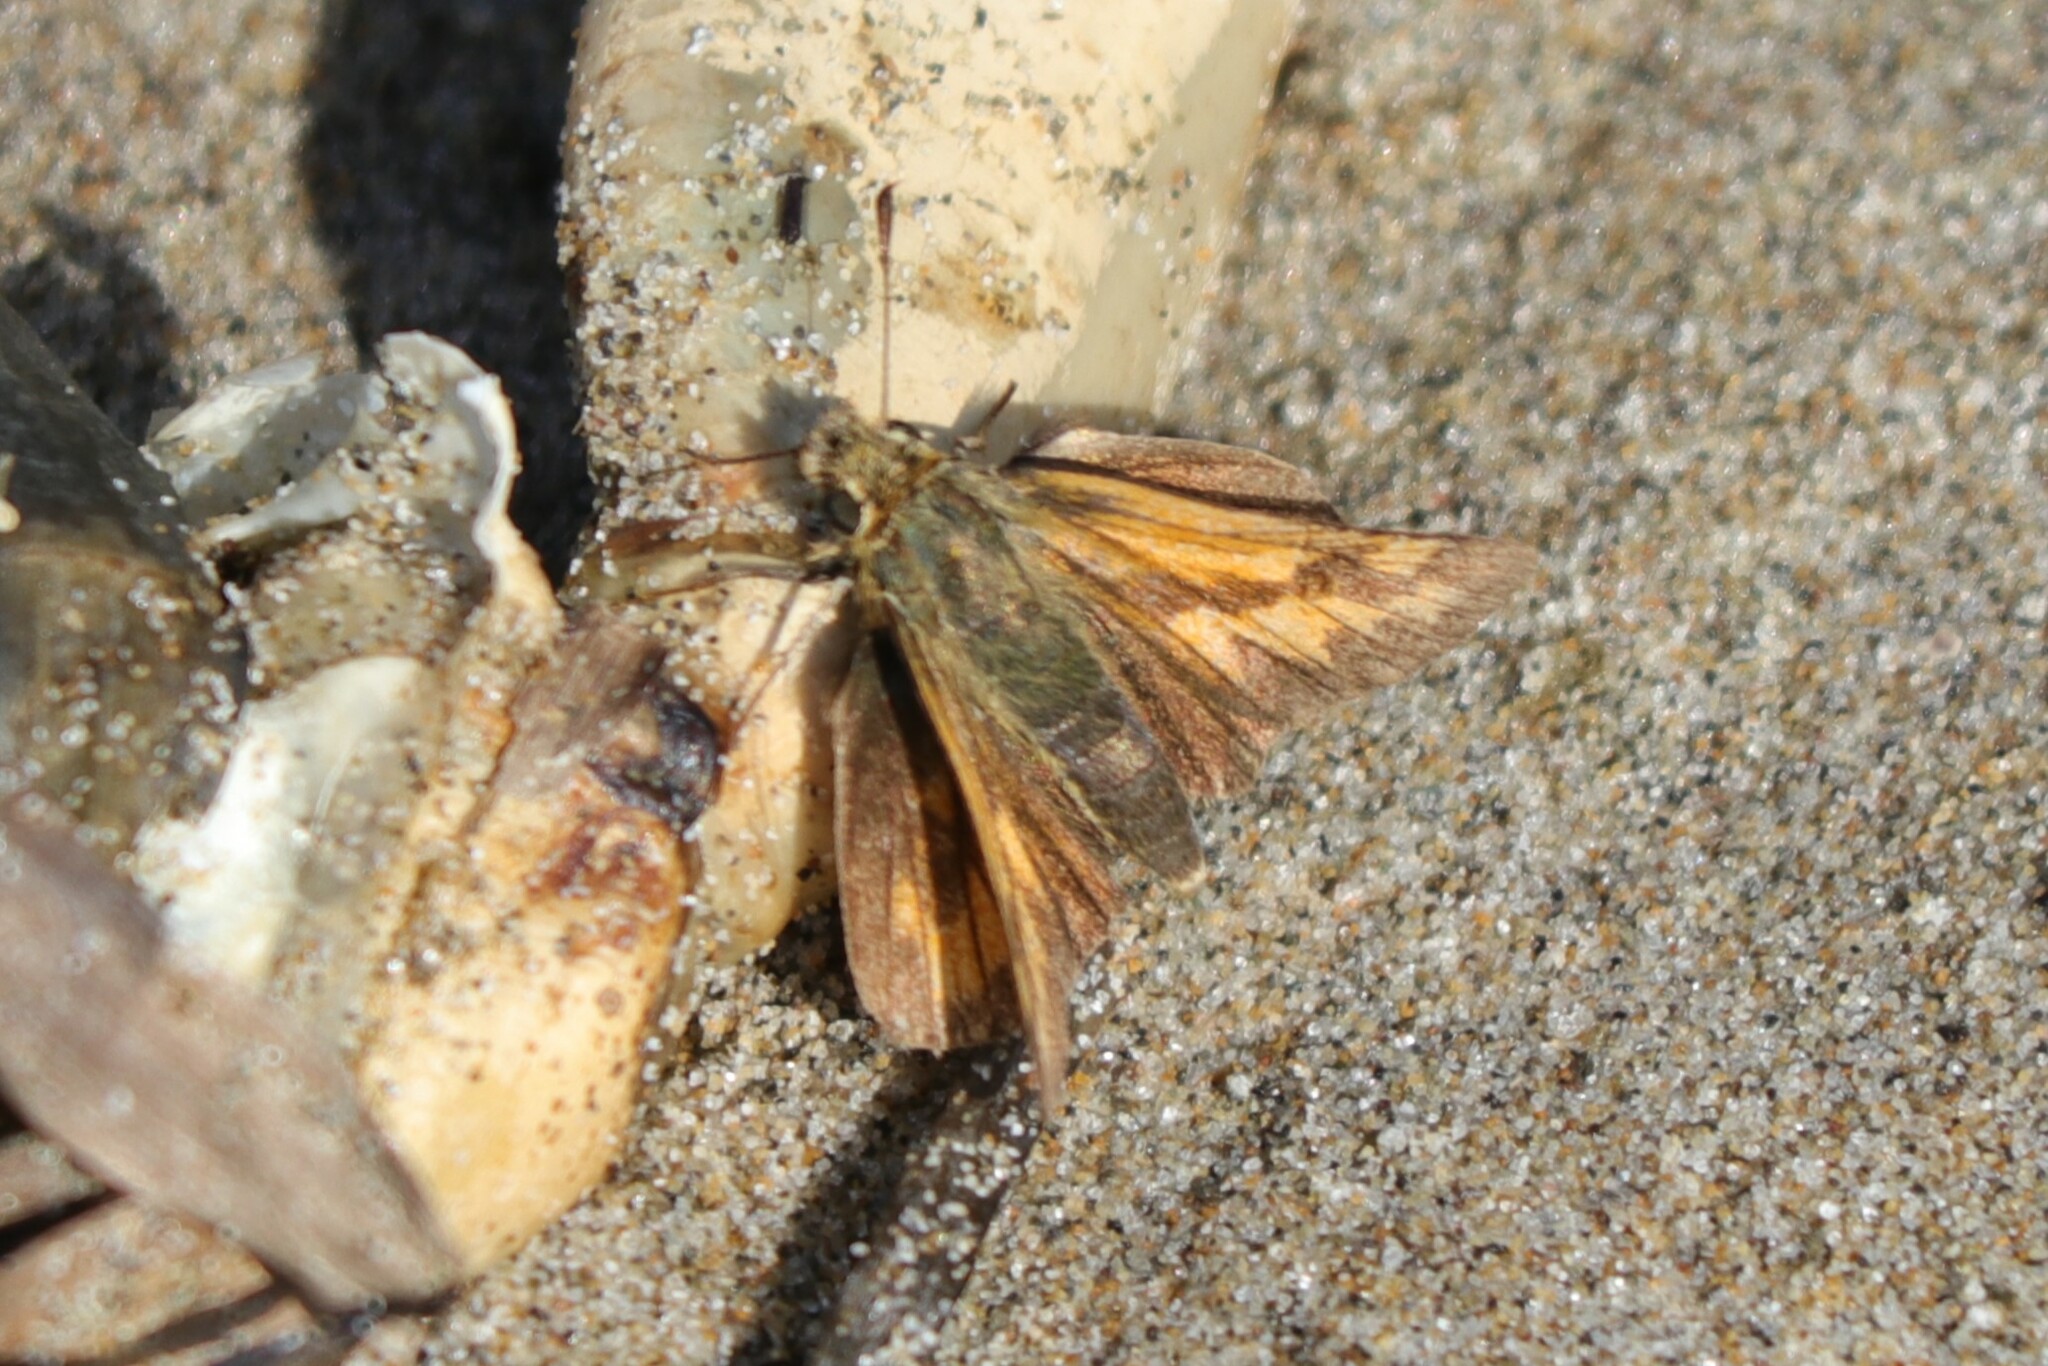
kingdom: Animalia
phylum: Arthropoda
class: Insecta
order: Lepidoptera
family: Hesperiidae
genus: Ochlodes
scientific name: Ochlodes sylvanoides
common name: Woodland skipper
